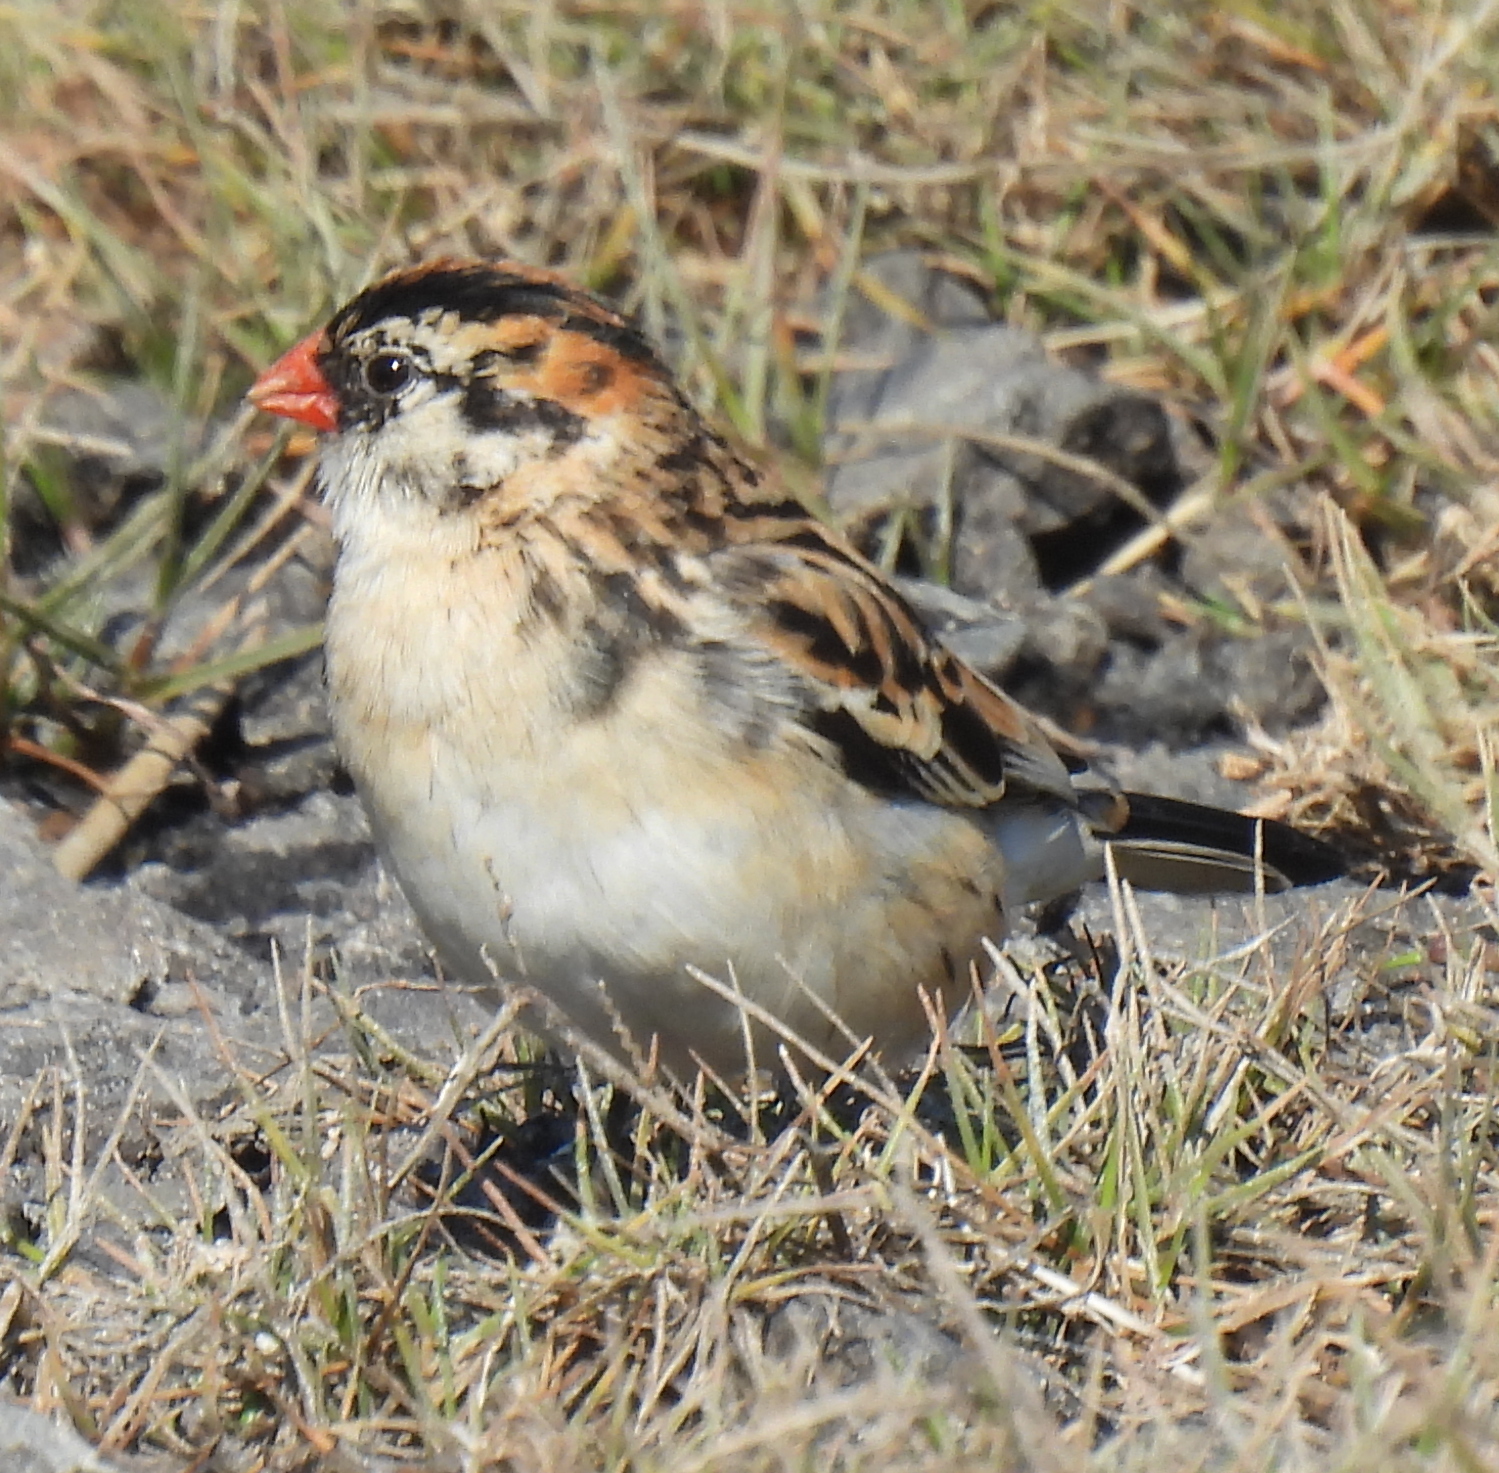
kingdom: Animalia
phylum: Chordata
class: Aves
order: Passeriformes
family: Viduidae
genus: Vidua
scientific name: Vidua macroura
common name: Pin-tailed whydah
